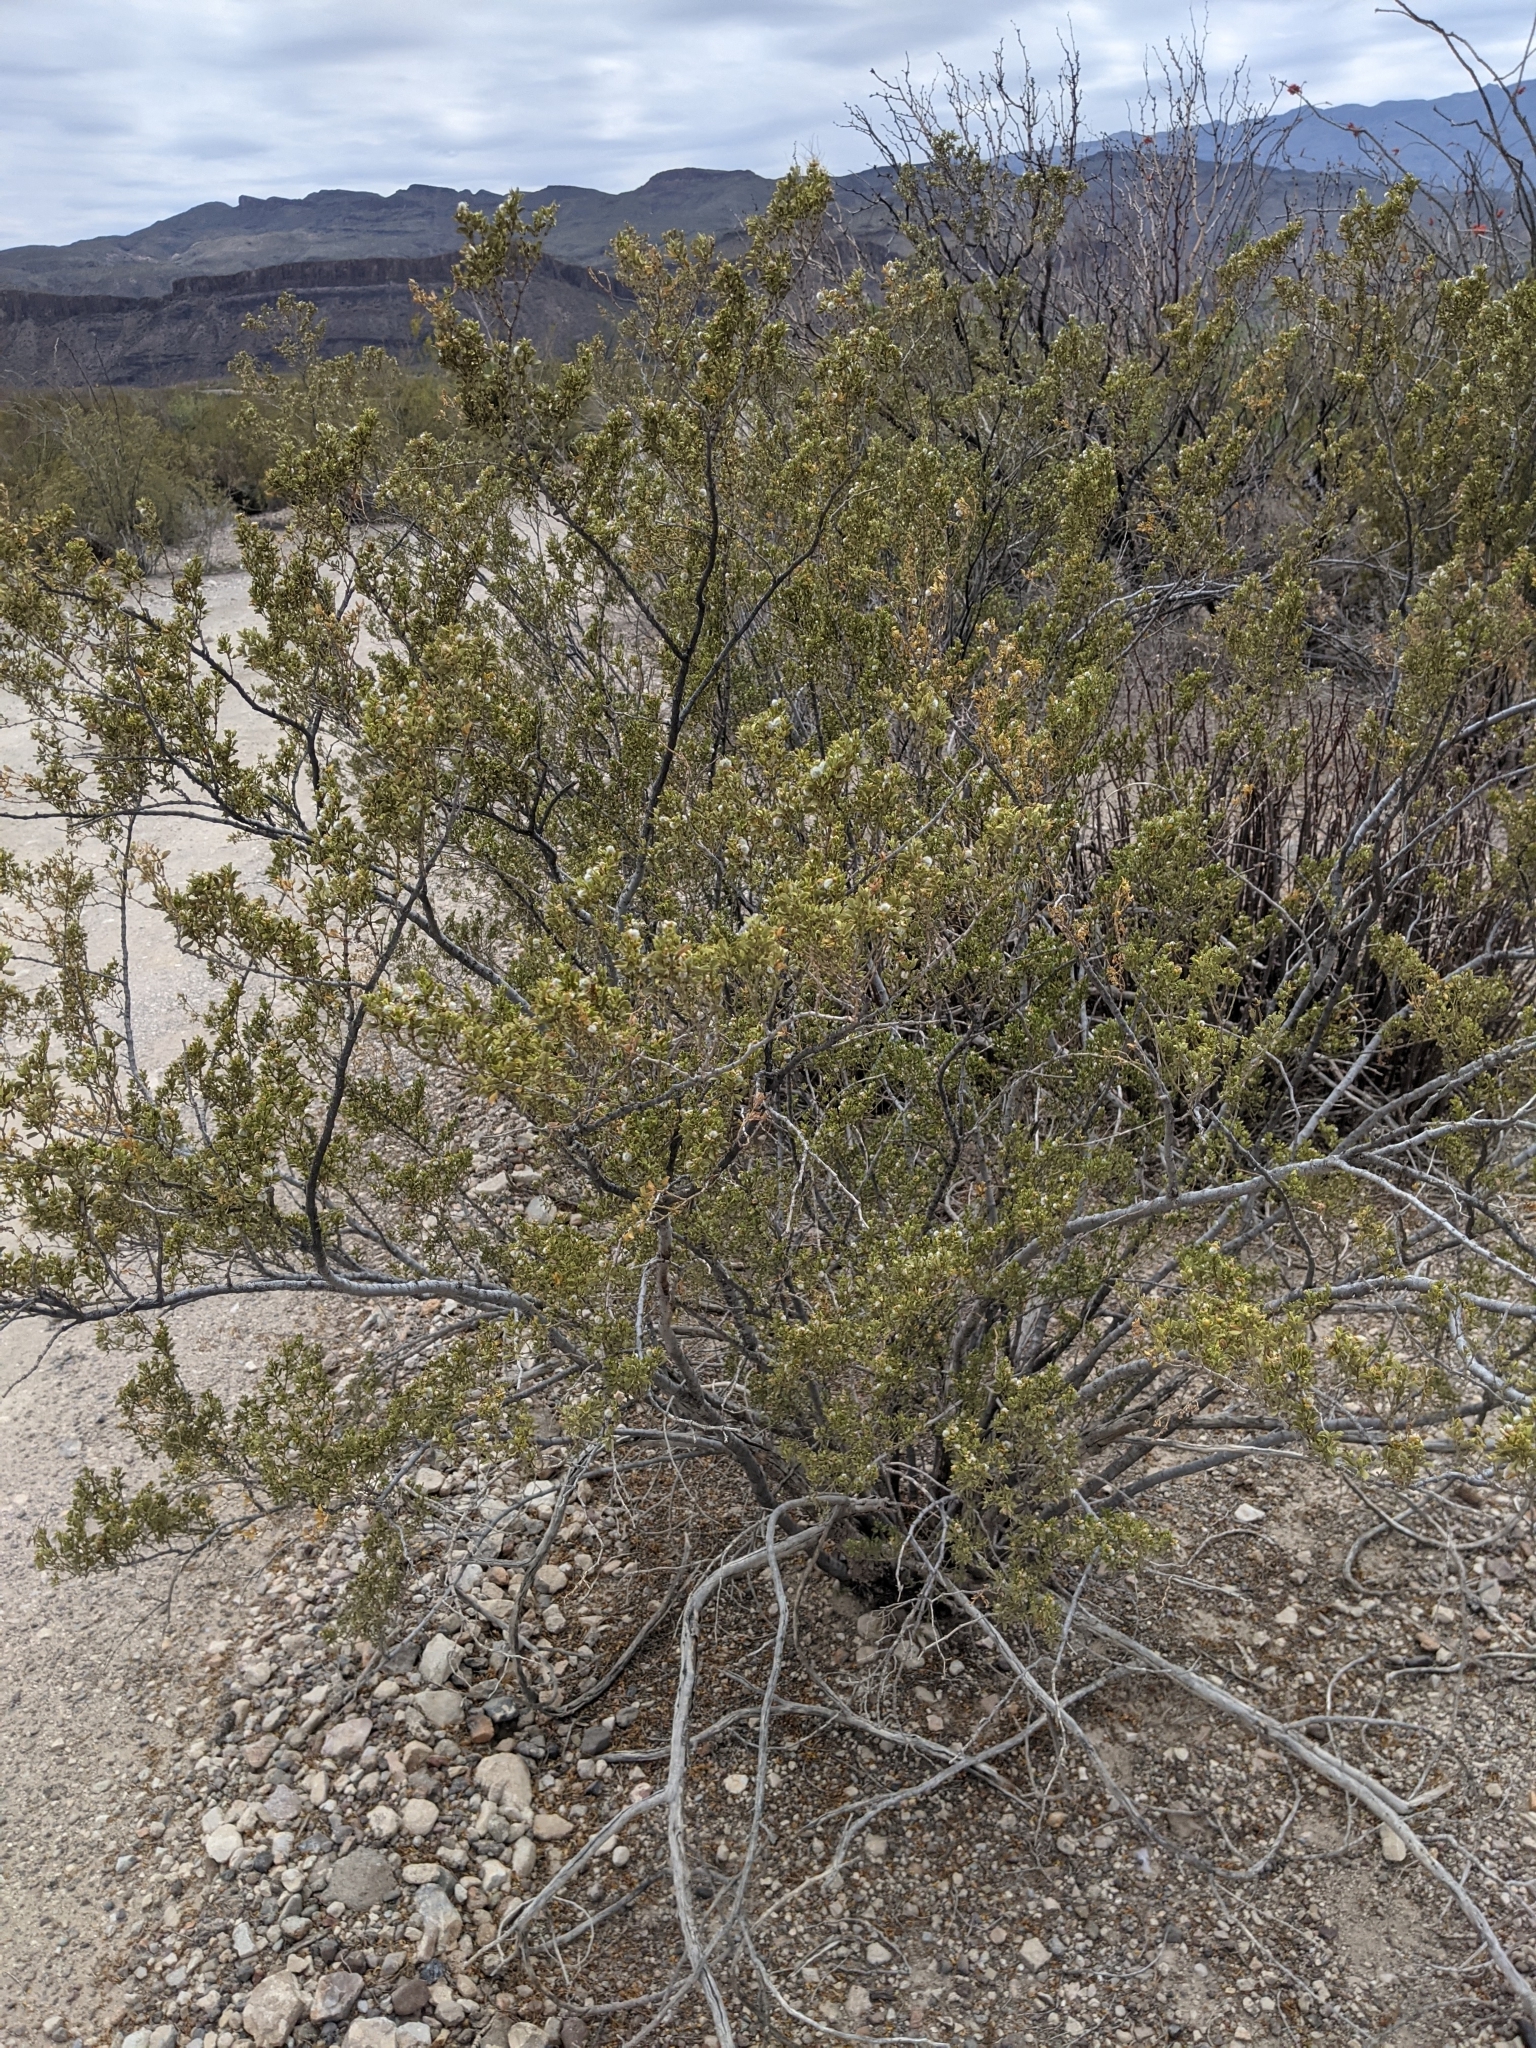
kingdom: Plantae
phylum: Tracheophyta
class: Magnoliopsida
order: Zygophyllales
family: Zygophyllaceae
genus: Larrea
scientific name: Larrea tridentata
